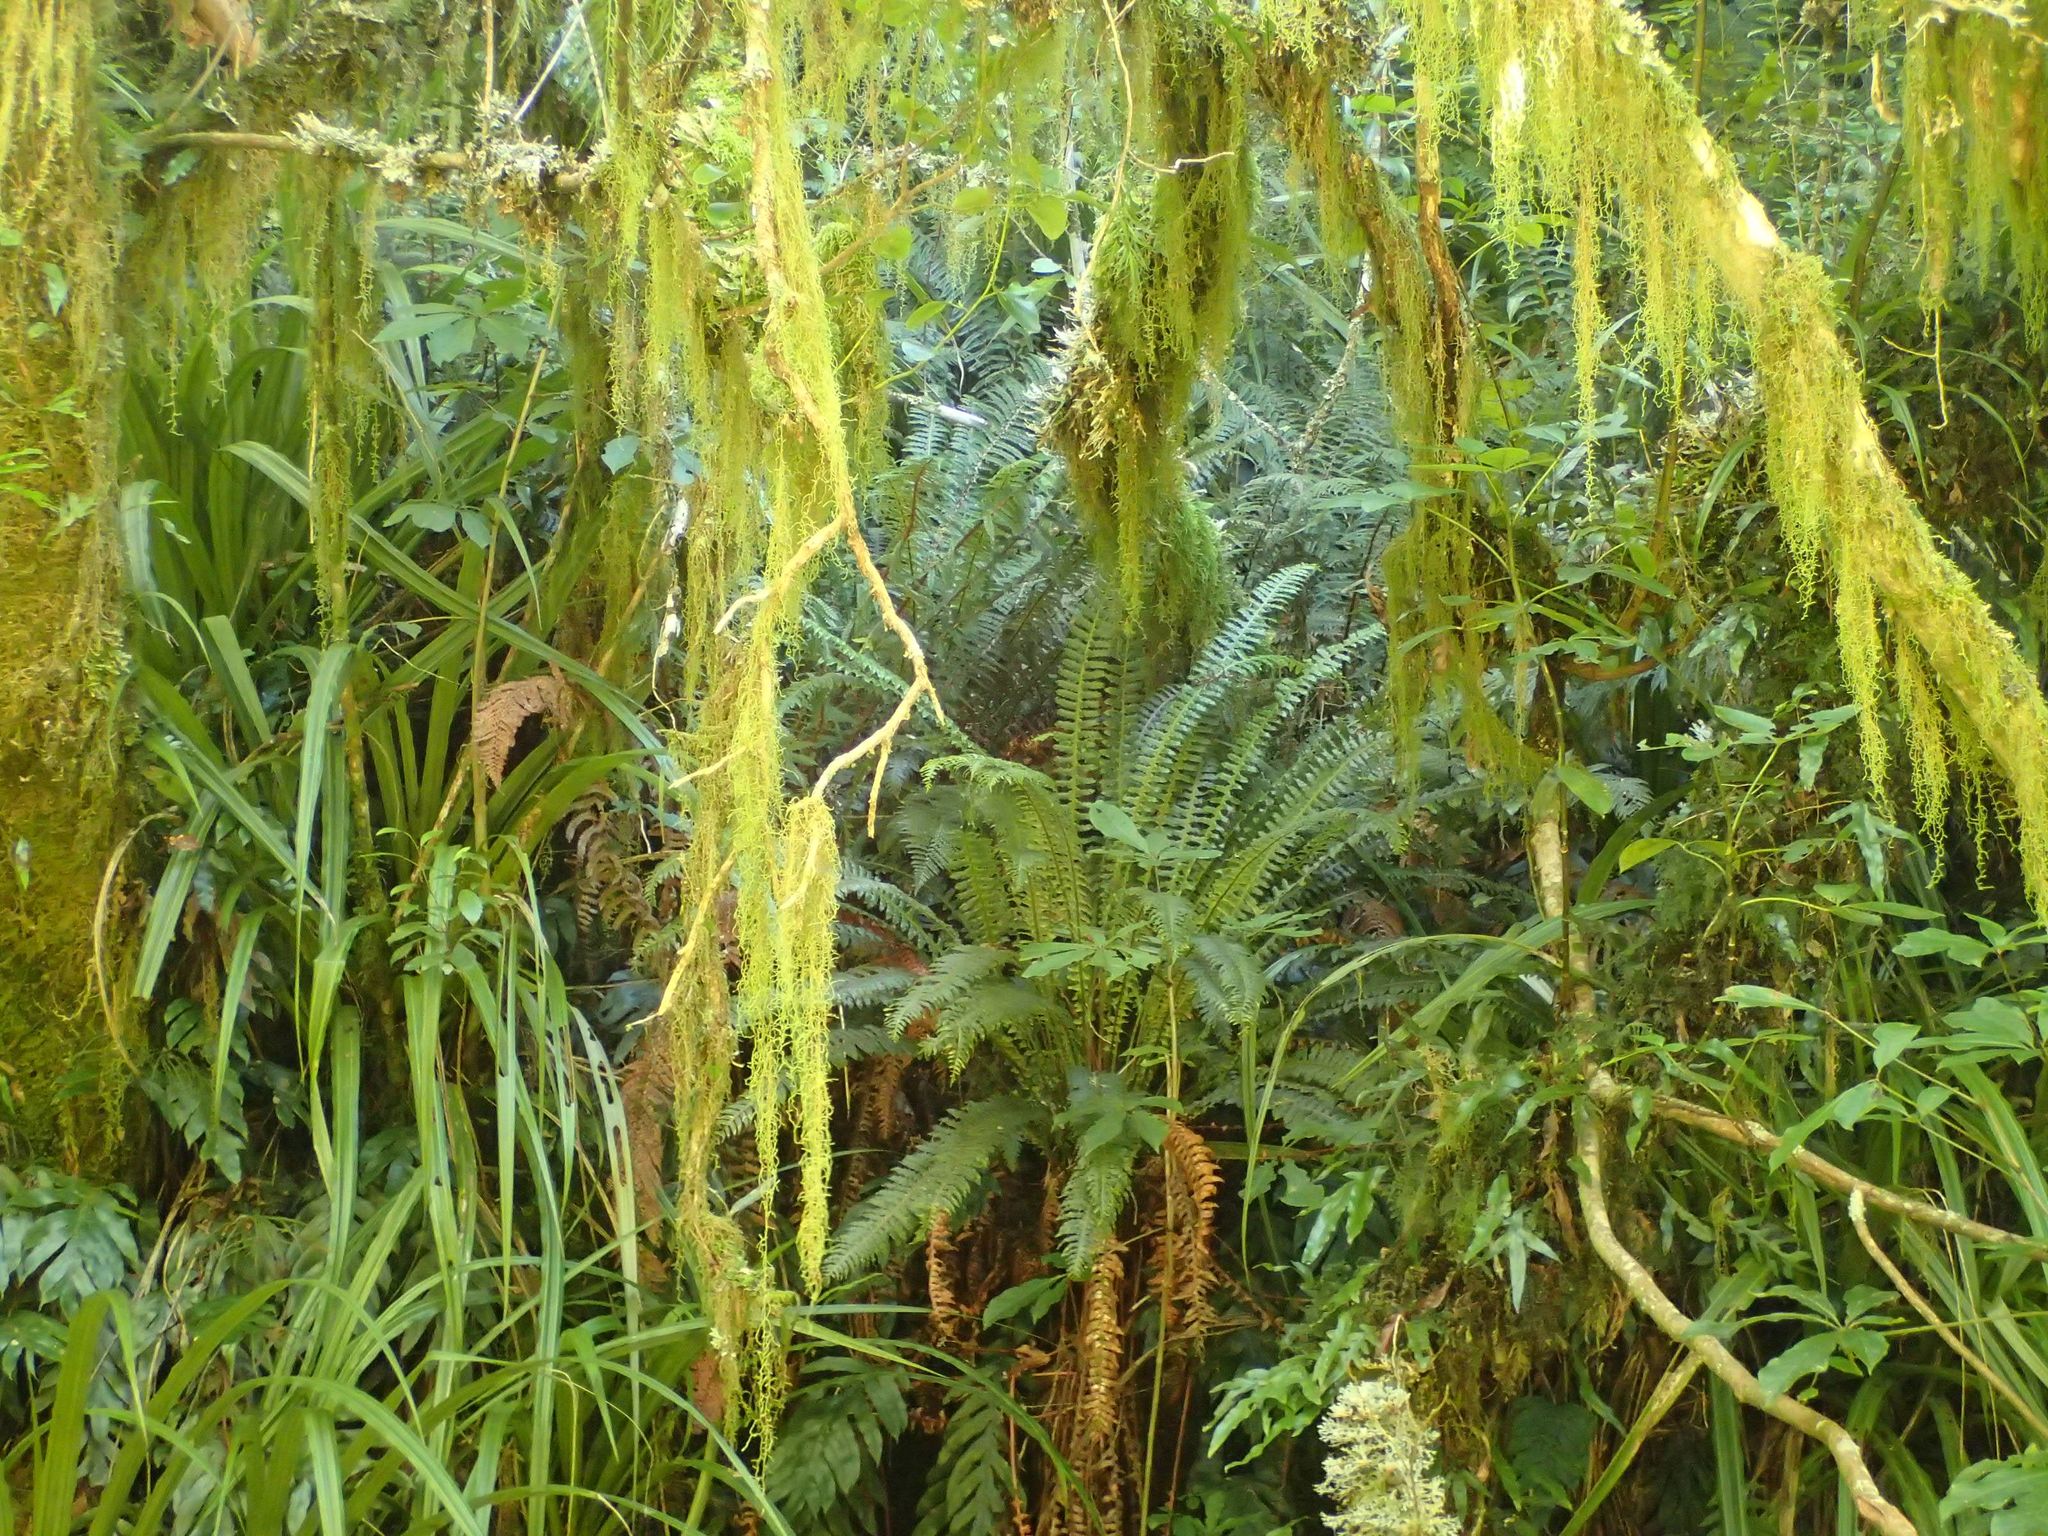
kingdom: Plantae
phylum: Tracheophyta
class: Polypodiopsida
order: Polypodiales
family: Blechnaceae
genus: Lomaria
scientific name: Lomaria discolor
